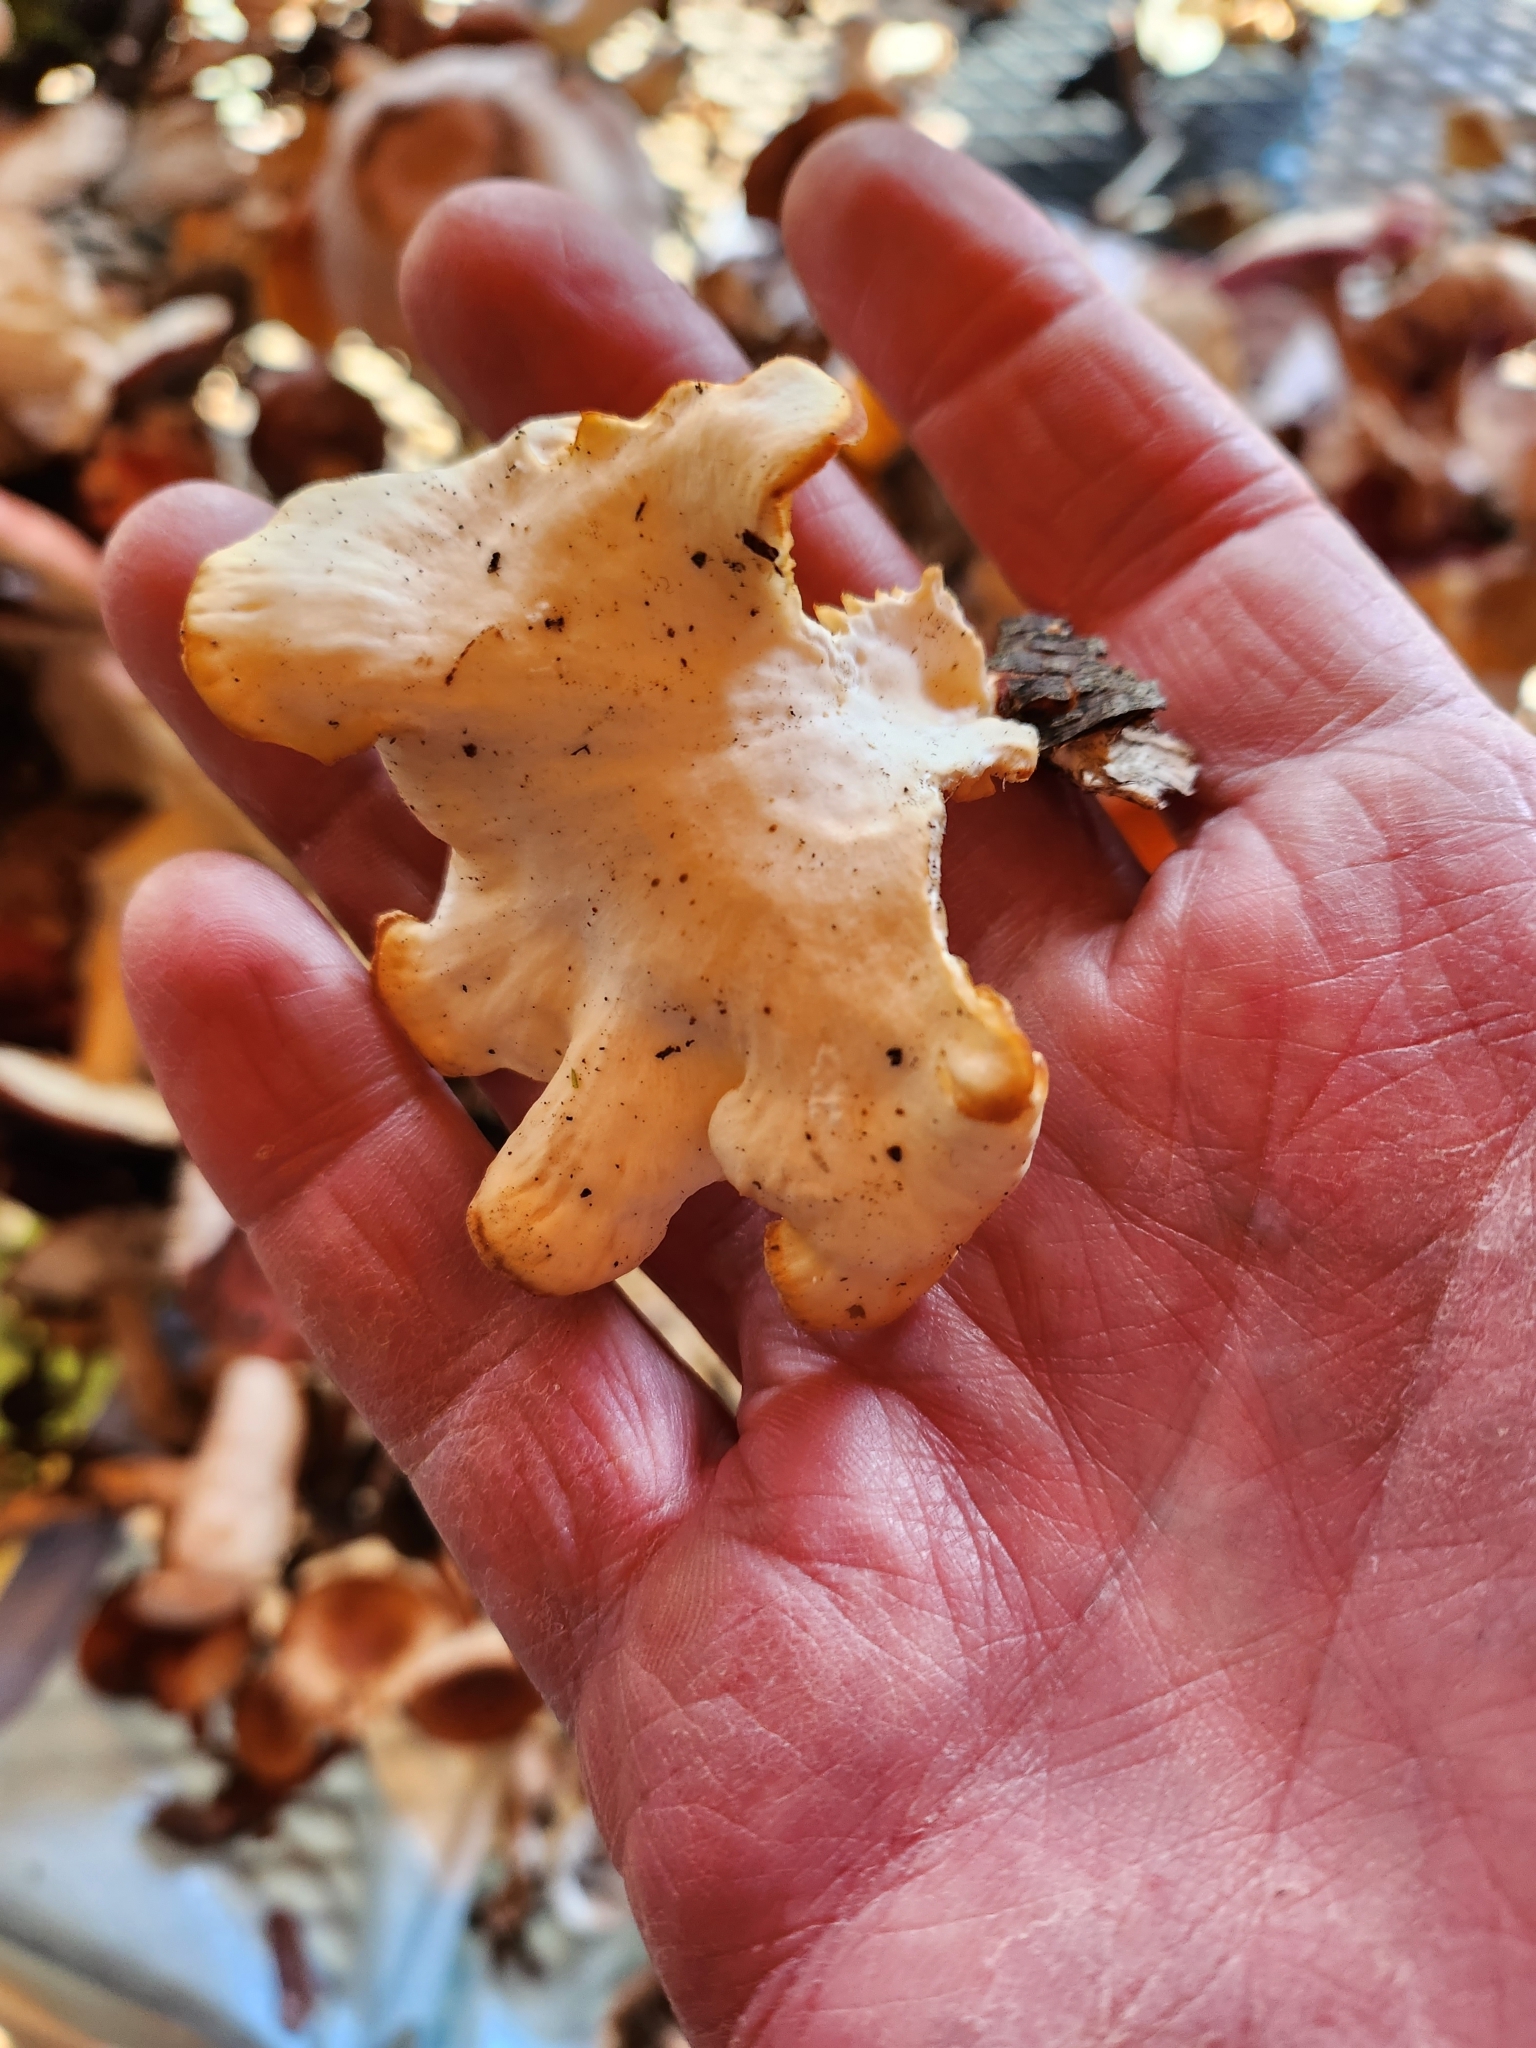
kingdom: Fungi
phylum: Basidiomycota
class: Agaricomycetes
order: Polyporales
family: Polyporaceae
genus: Neofavolus
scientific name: Neofavolus suavissimus
